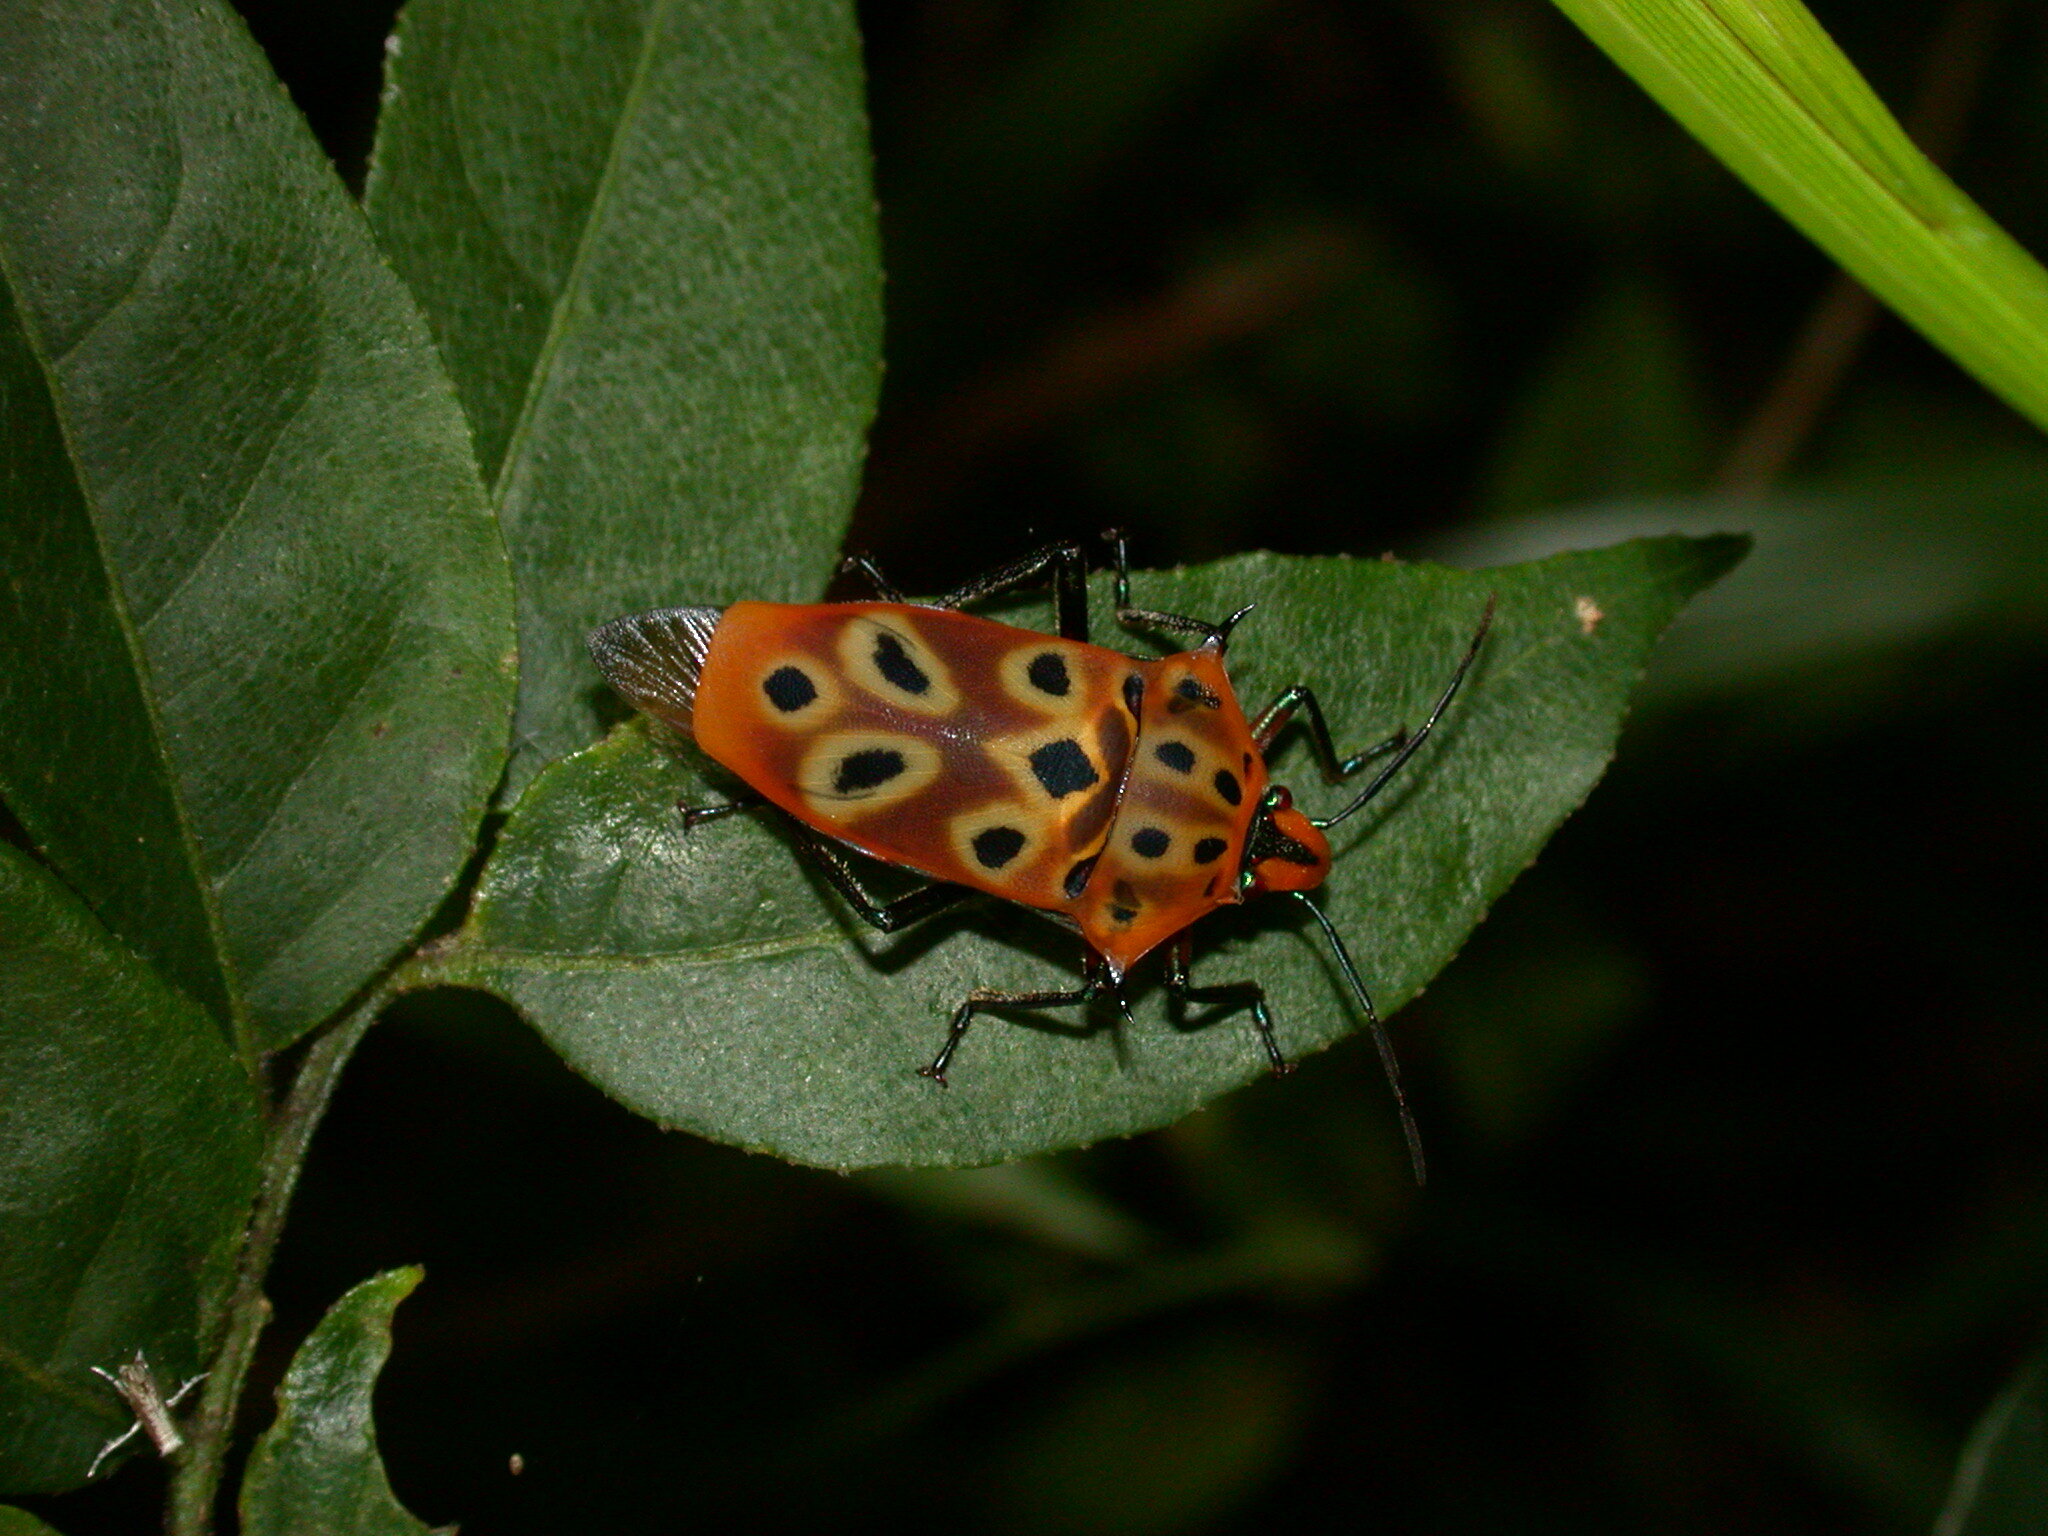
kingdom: Animalia
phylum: Arthropoda
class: Insecta
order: Hemiptera
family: Scutelleridae
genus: Cantao
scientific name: Cantao ocellatus
